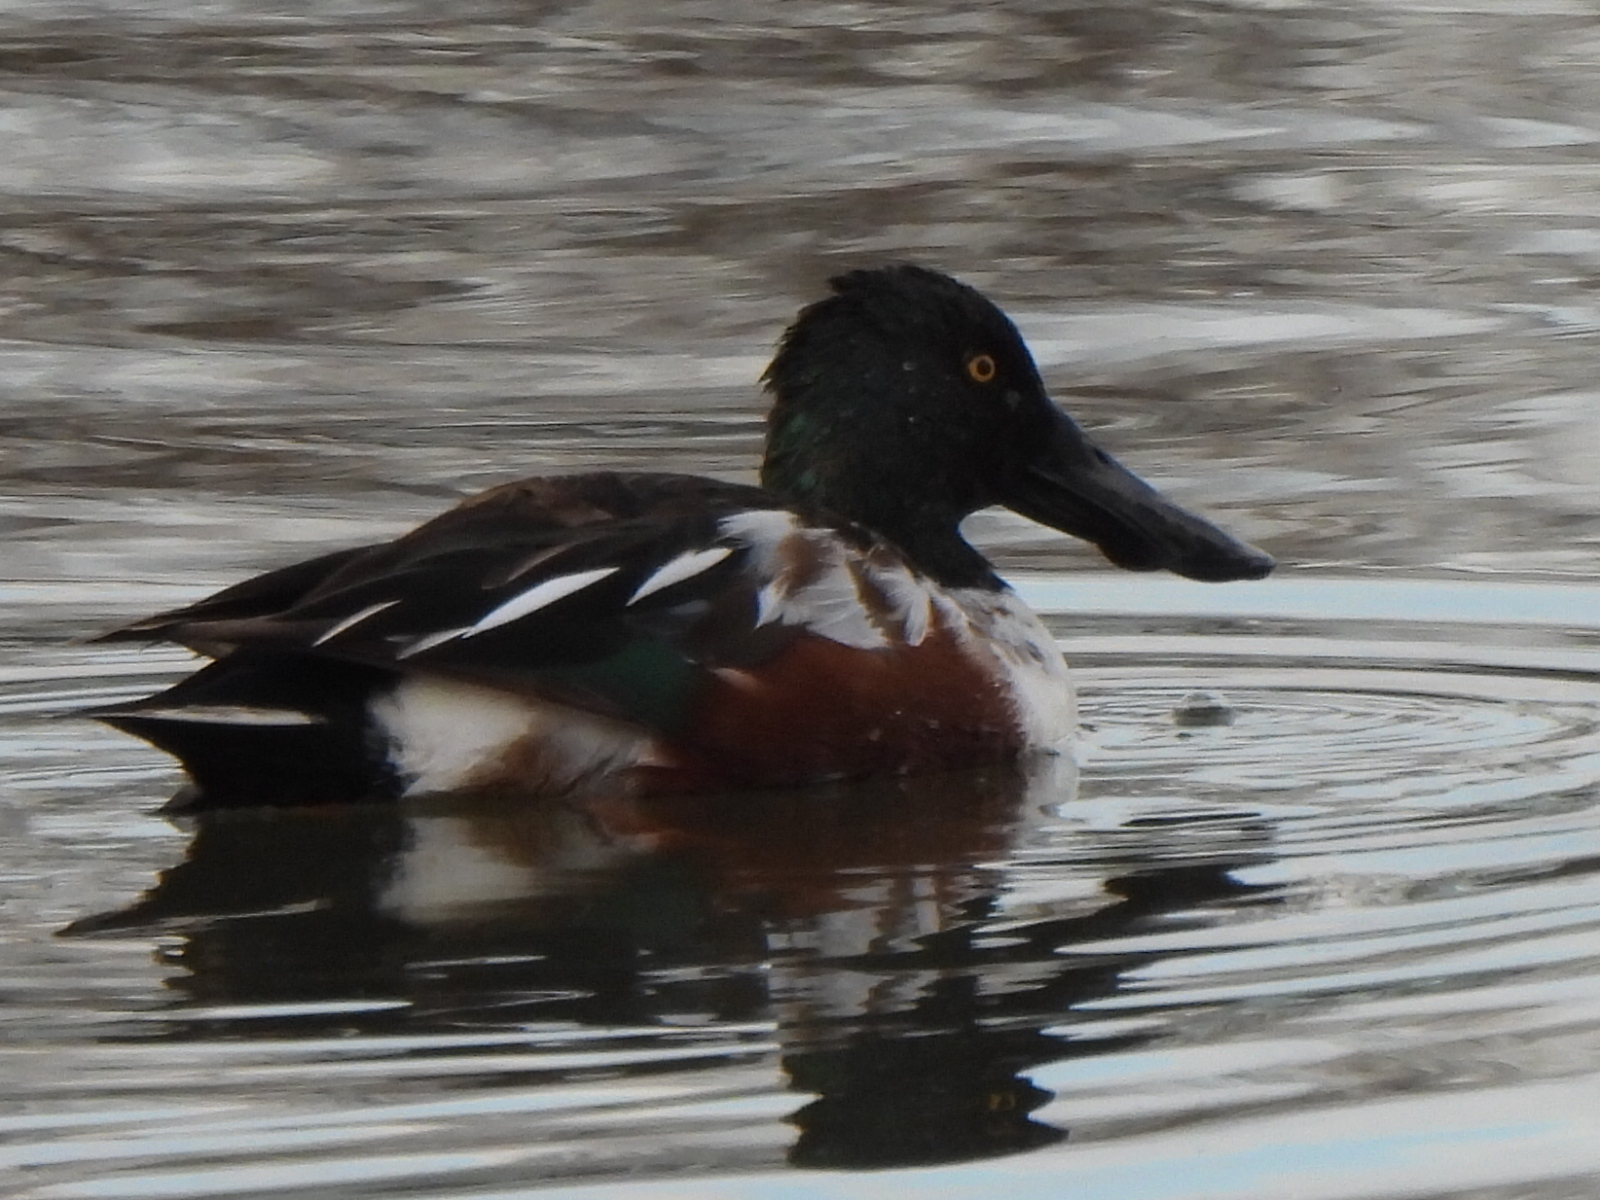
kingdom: Animalia
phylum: Chordata
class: Aves
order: Anseriformes
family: Anatidae
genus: Spatula
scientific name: Spatula clypeata
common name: Northern shoveler
